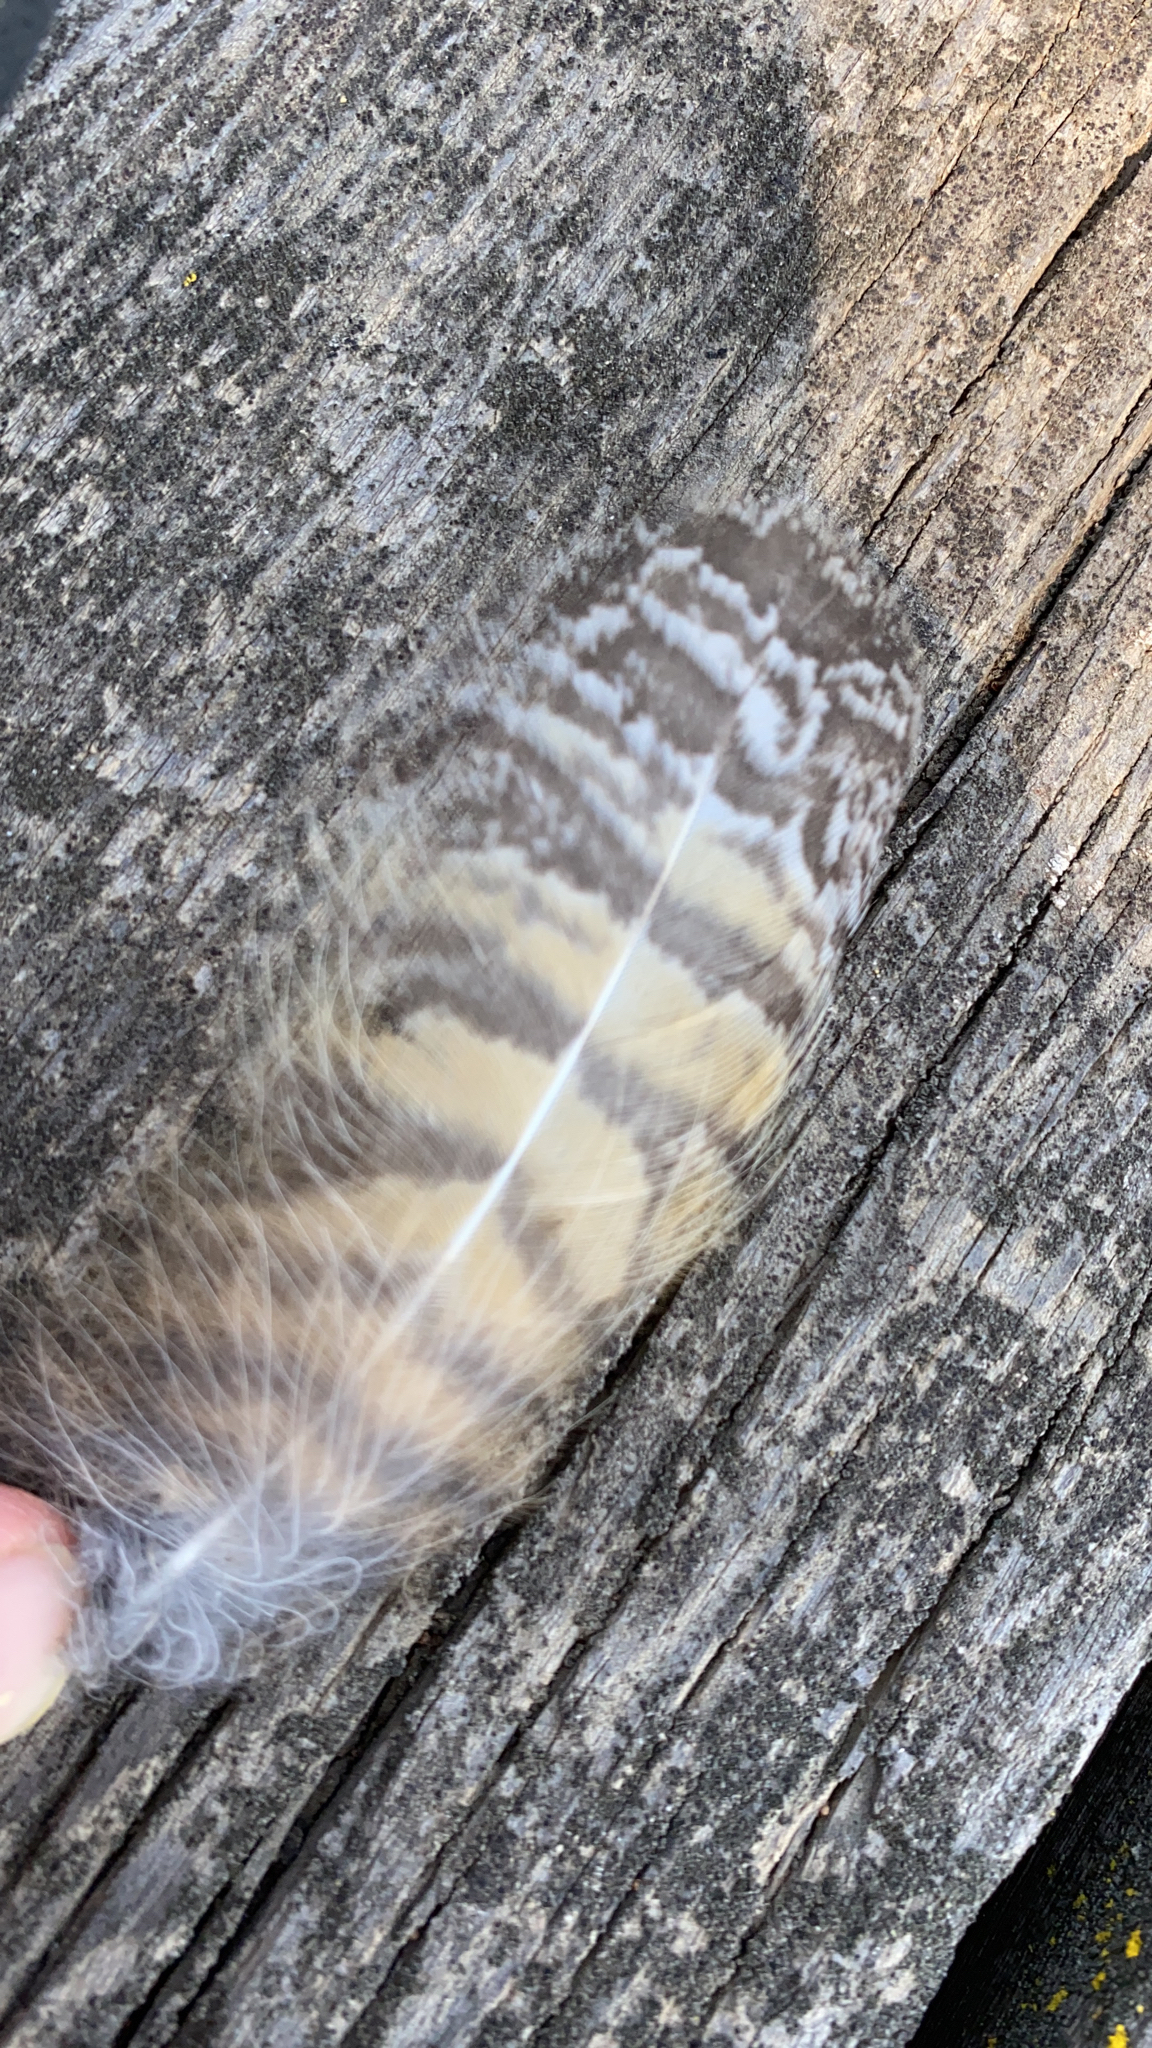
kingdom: Animalia
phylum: Chordata
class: Aves
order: Strigiformes
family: Strigidae
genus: Bubo
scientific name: Bubo virginianus
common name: Great horned owl
